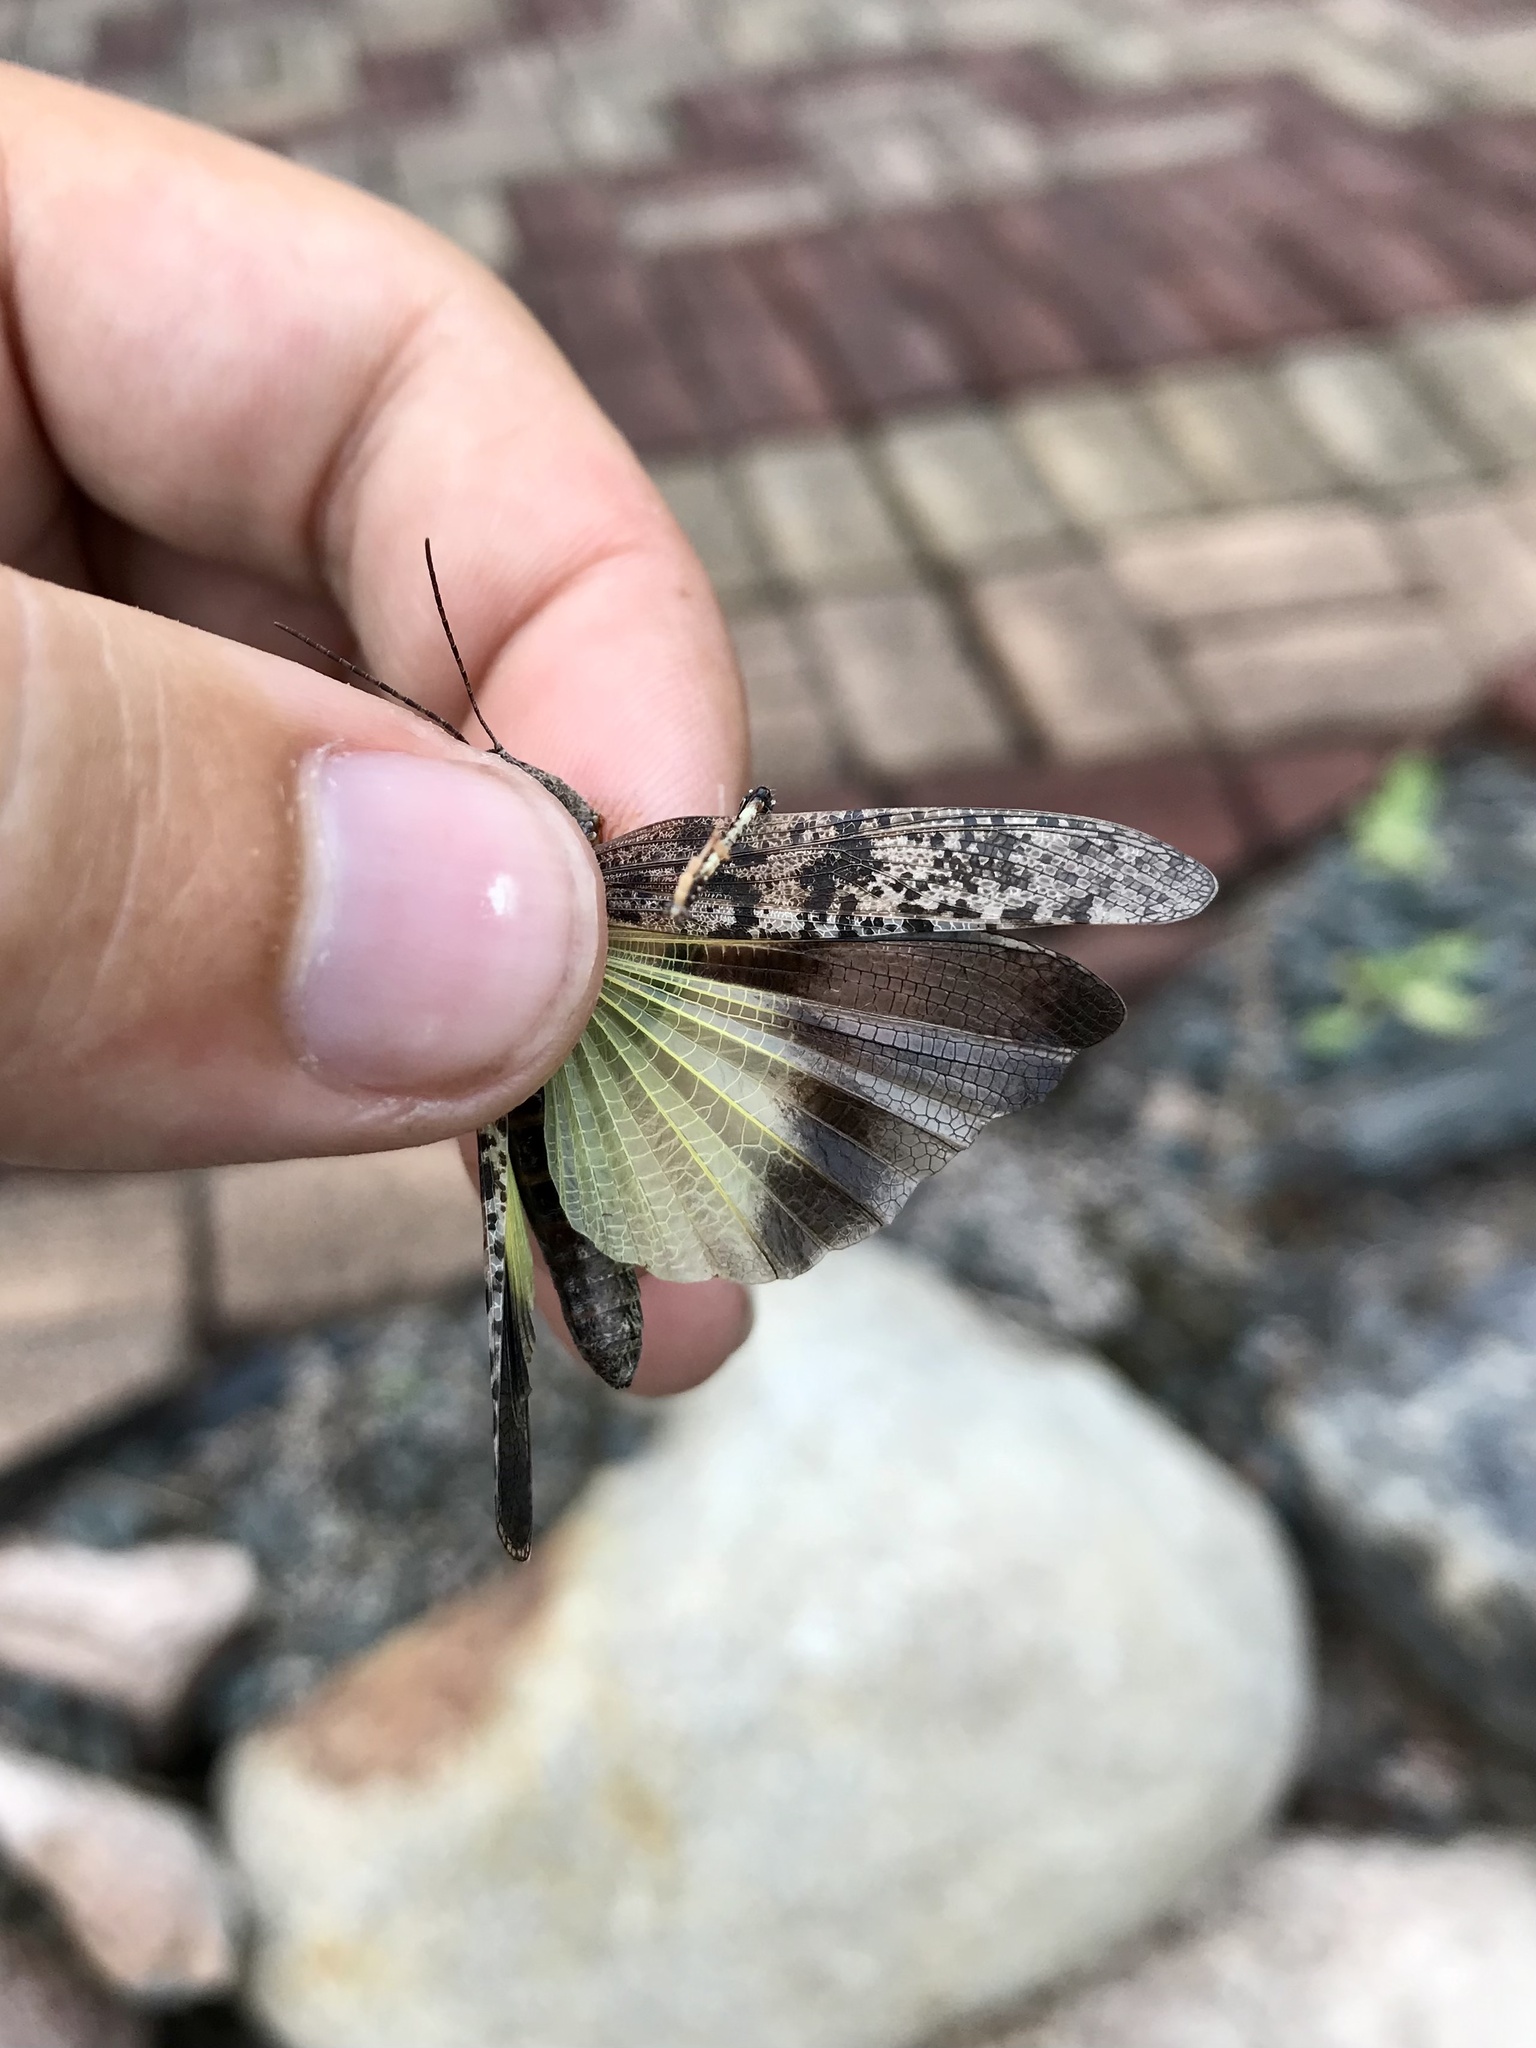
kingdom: Animalia
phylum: Arthropoda
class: Insecta
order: Orthoptera
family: Acrididae
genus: Trimerotropis
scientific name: Trimerotropis verruculata
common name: Crackling forest grasshopper
